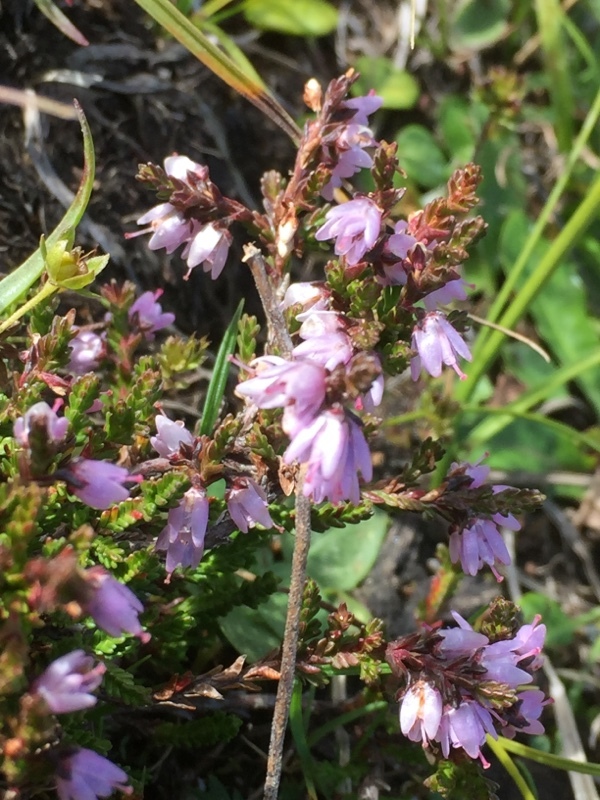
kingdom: Plantae
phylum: Tracheophyta
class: Magnoliopsida
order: Ericales
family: Ericaceae
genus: Calluna
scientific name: Calluna vulgaris
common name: Heather
